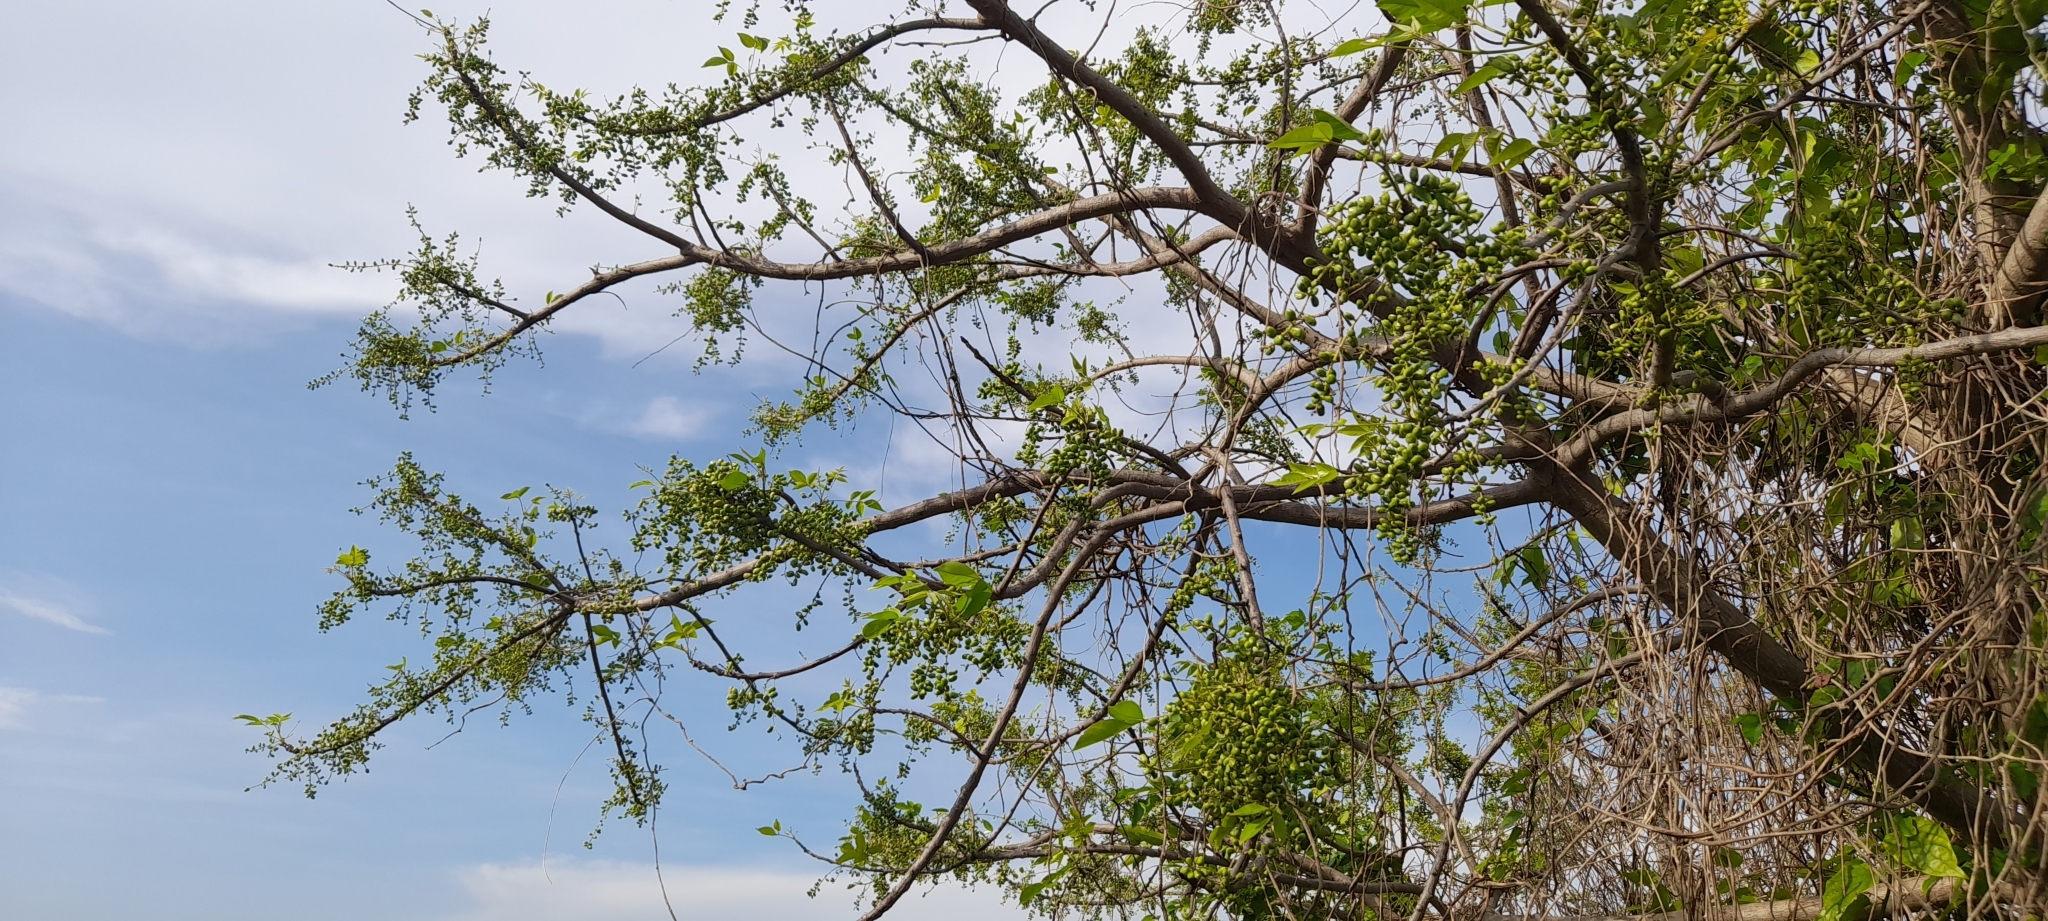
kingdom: Plantae
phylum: Tracheophyta
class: Magnoliopsida
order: Sapindales
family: Anacardiaceae
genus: Lannea
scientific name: Lannea coromandelica
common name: Indian ash tree
